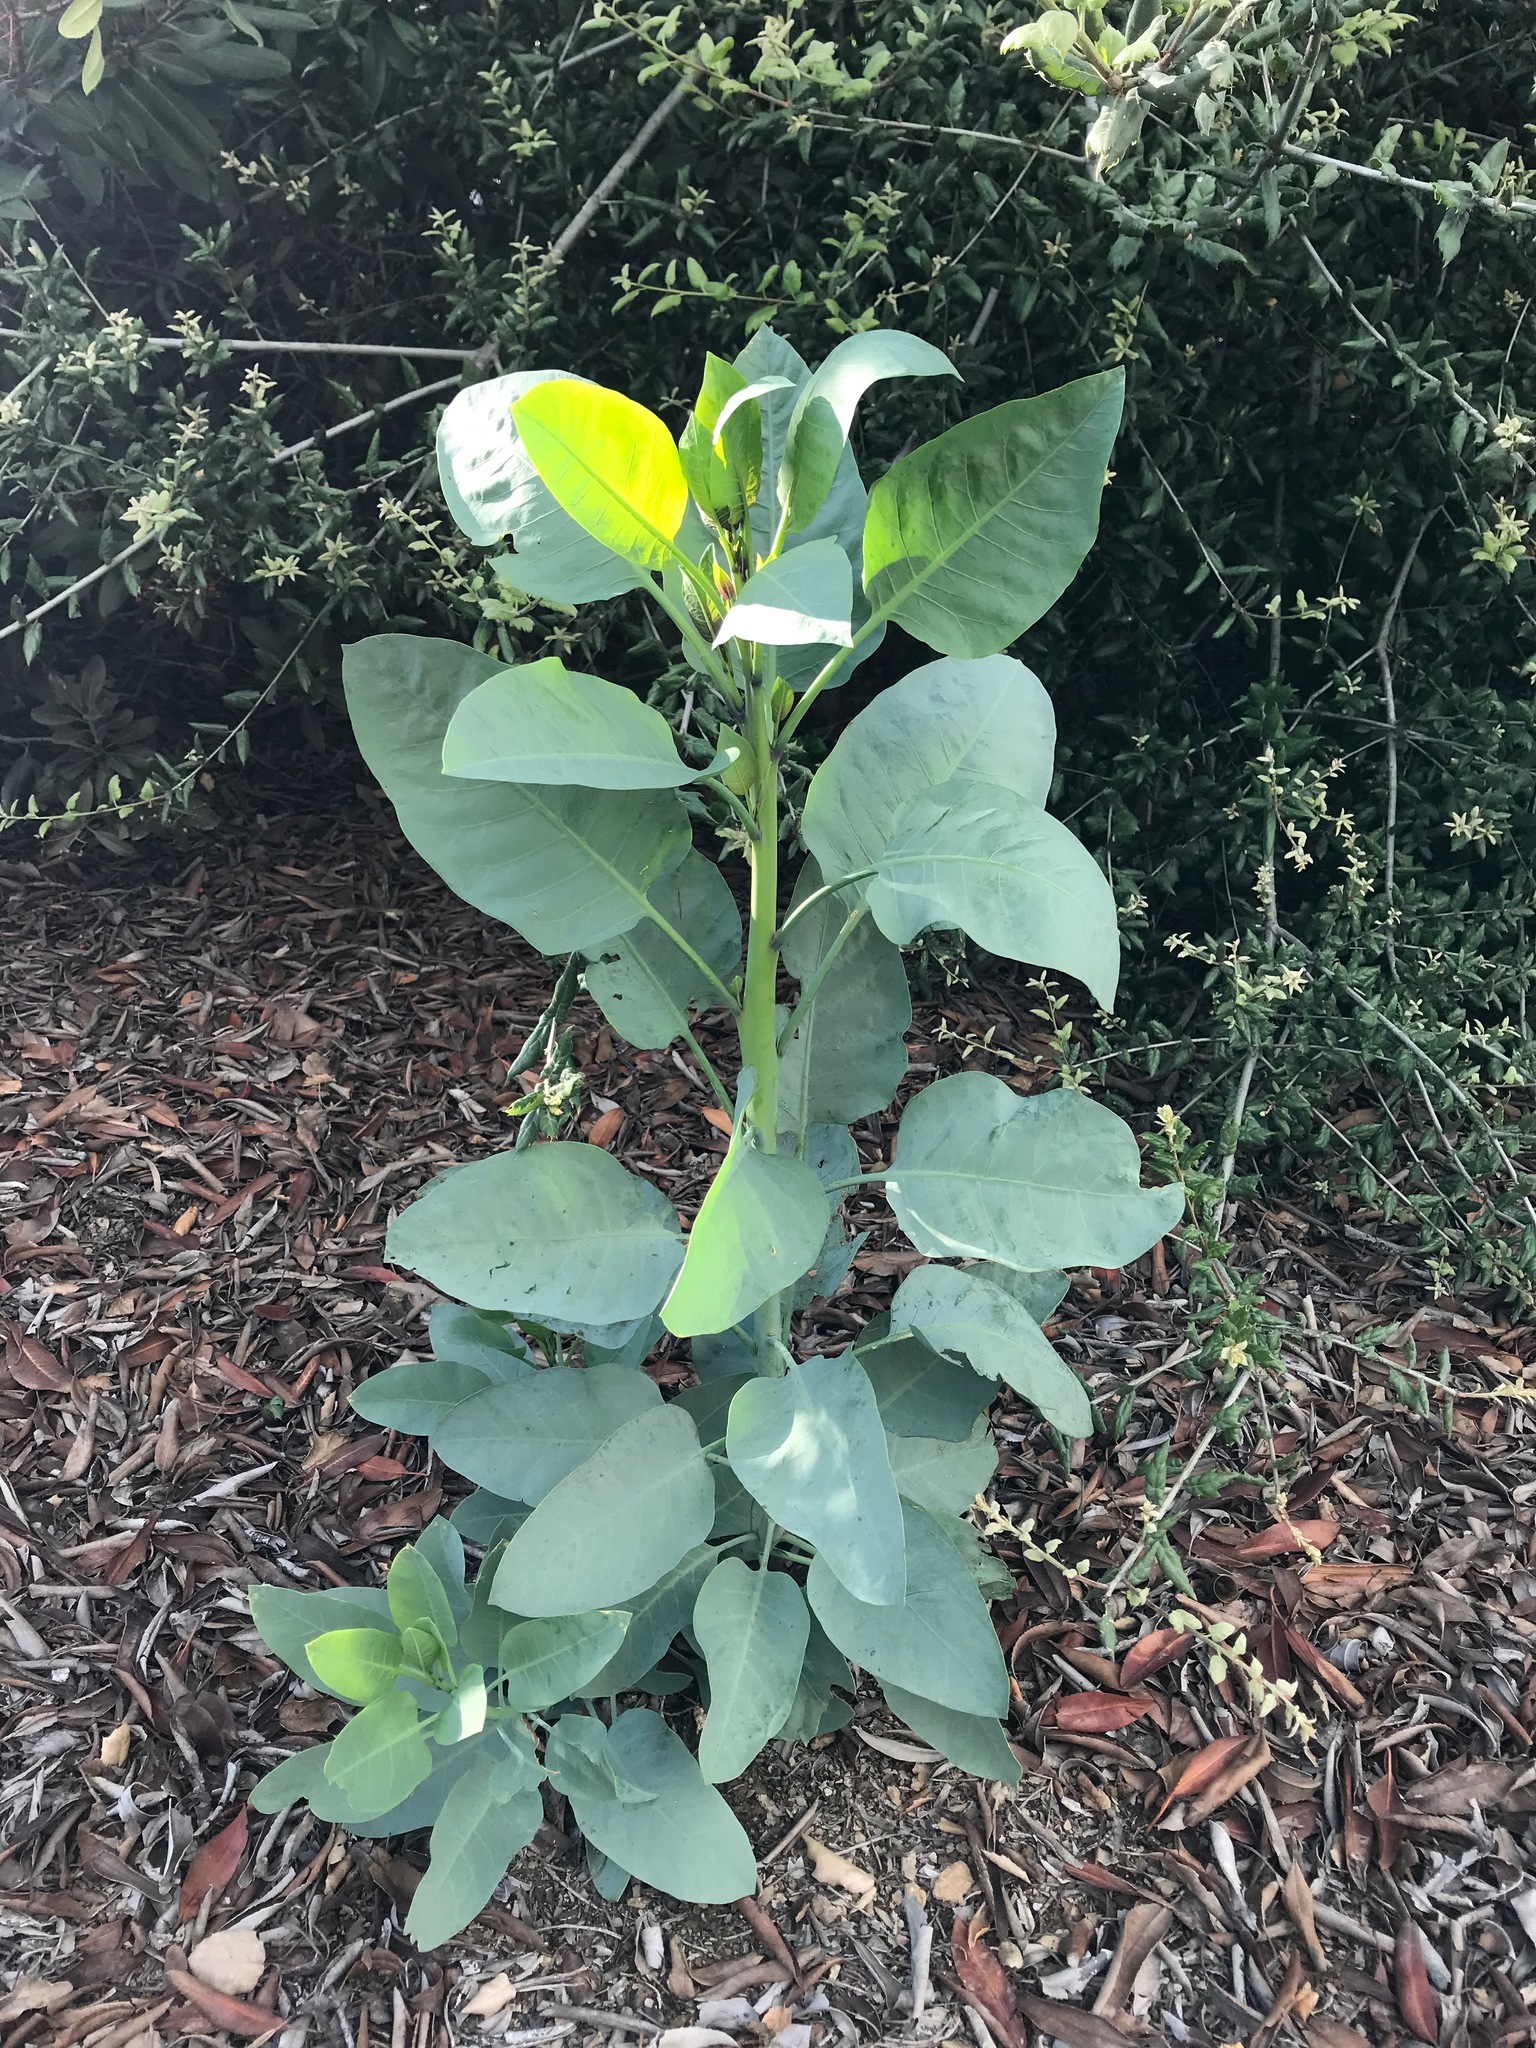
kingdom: Plantae
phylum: Tracheophyta
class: Magnoliopsida
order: Solanales
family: Solanaceae
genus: Nicotiana
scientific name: Nicotiana glauca
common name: Tree tobacco
